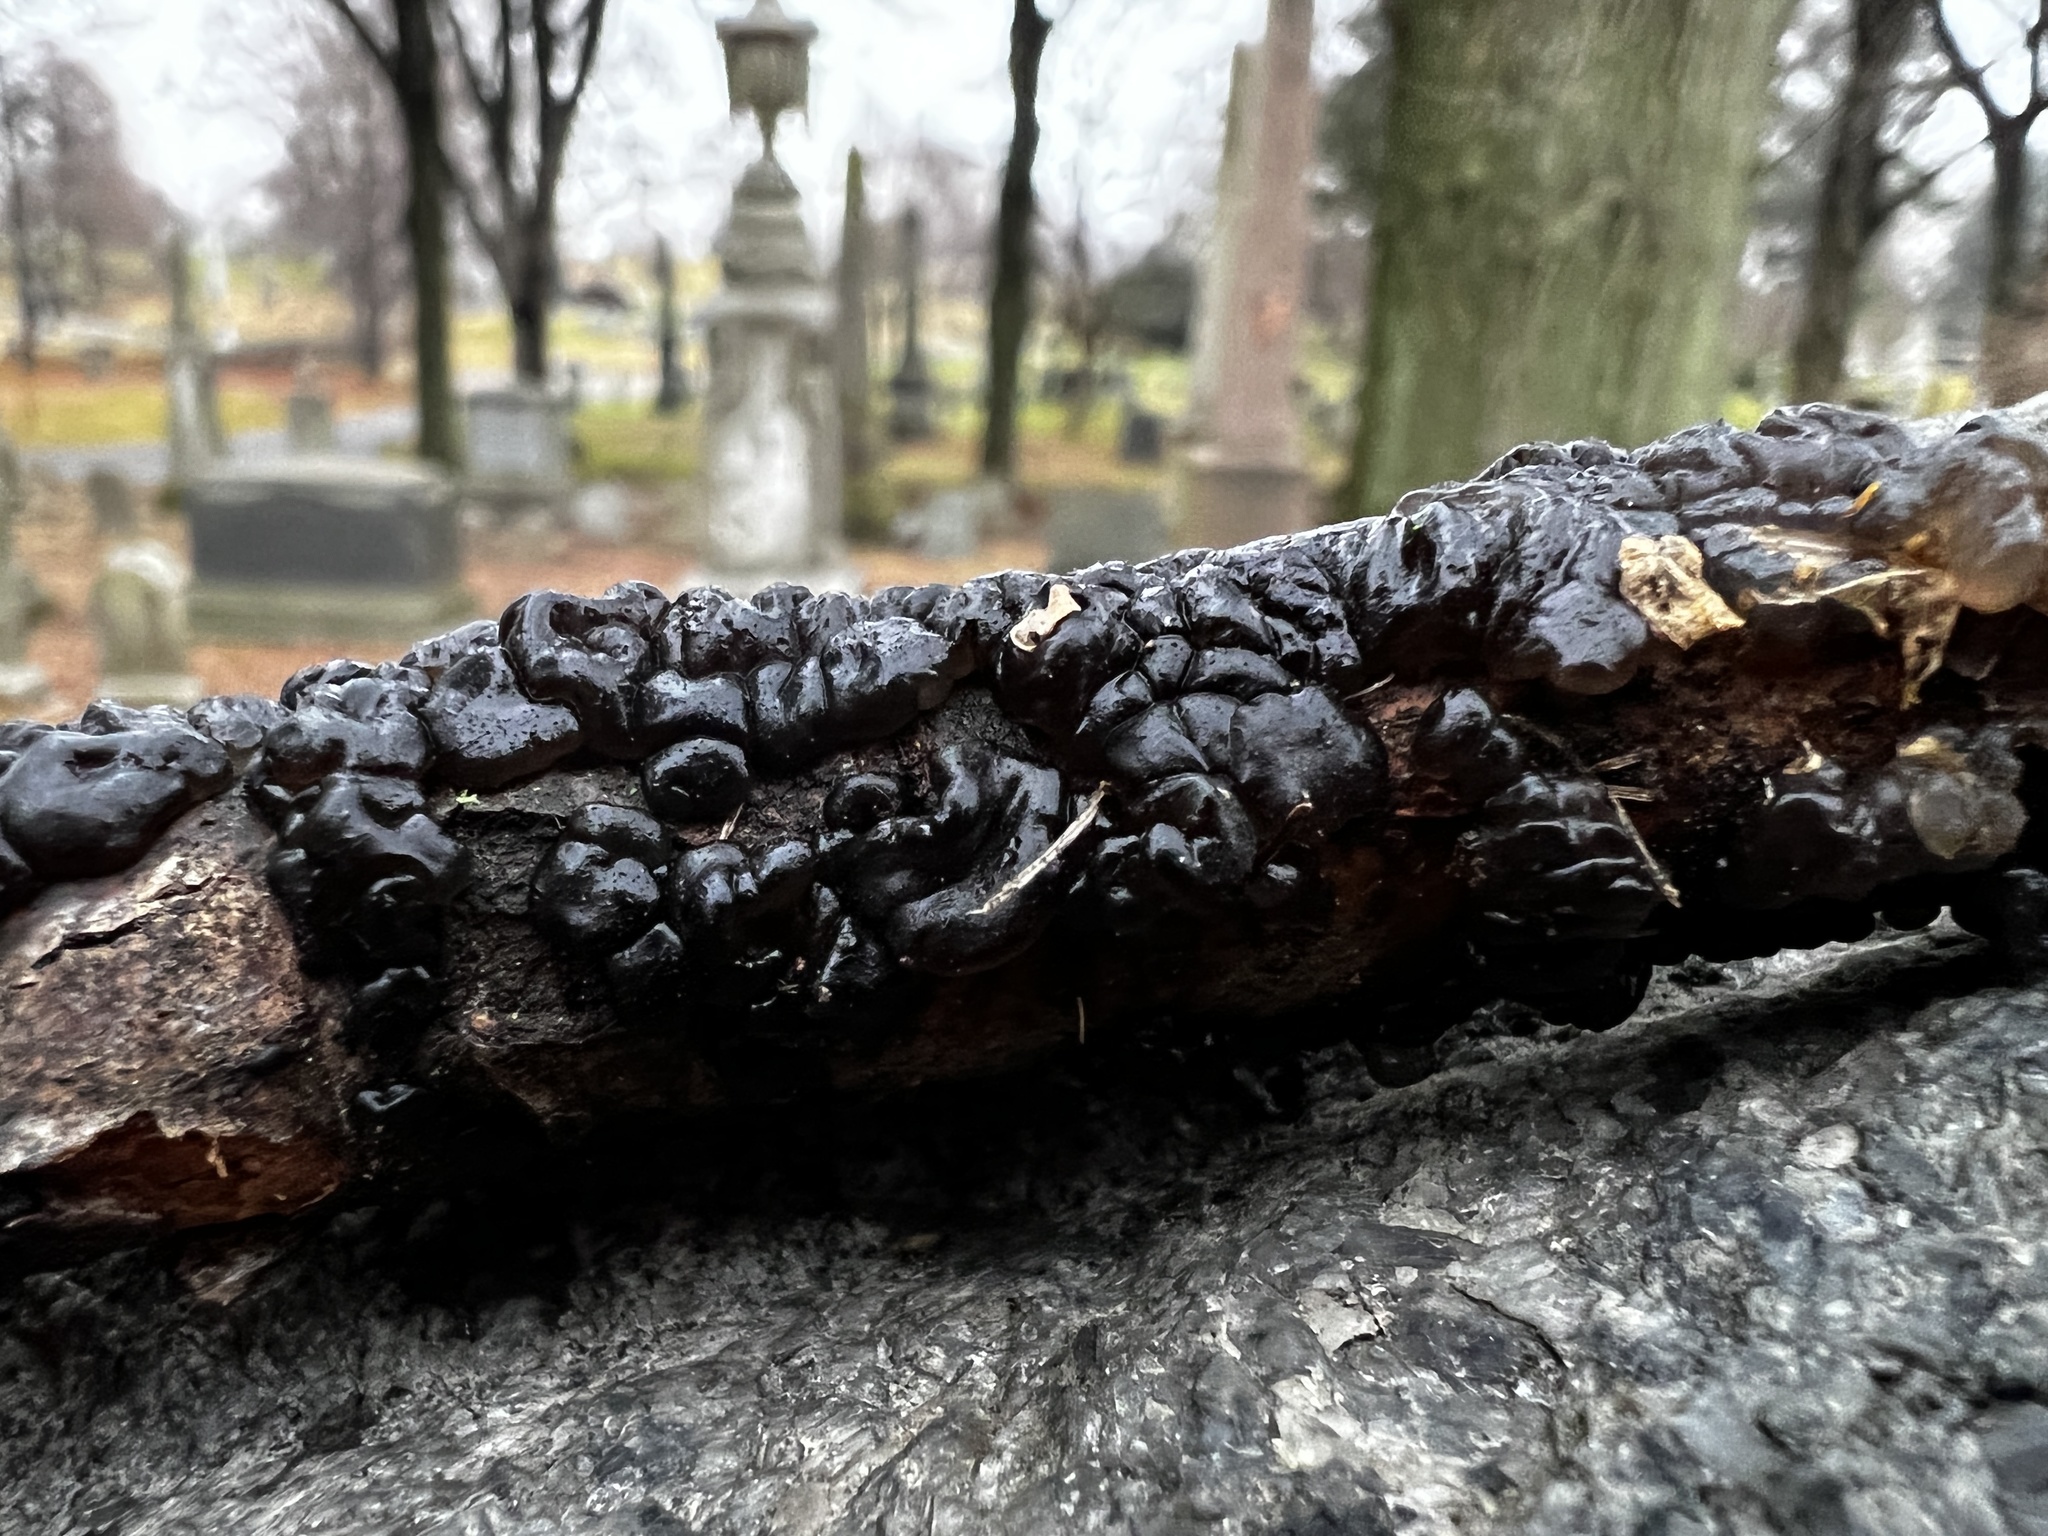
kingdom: Fungi
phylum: Basidiomycota
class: Agaricomycetes
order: Auriculariales
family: Auriculariaceae
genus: Exidia
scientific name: Exidia nigricans
